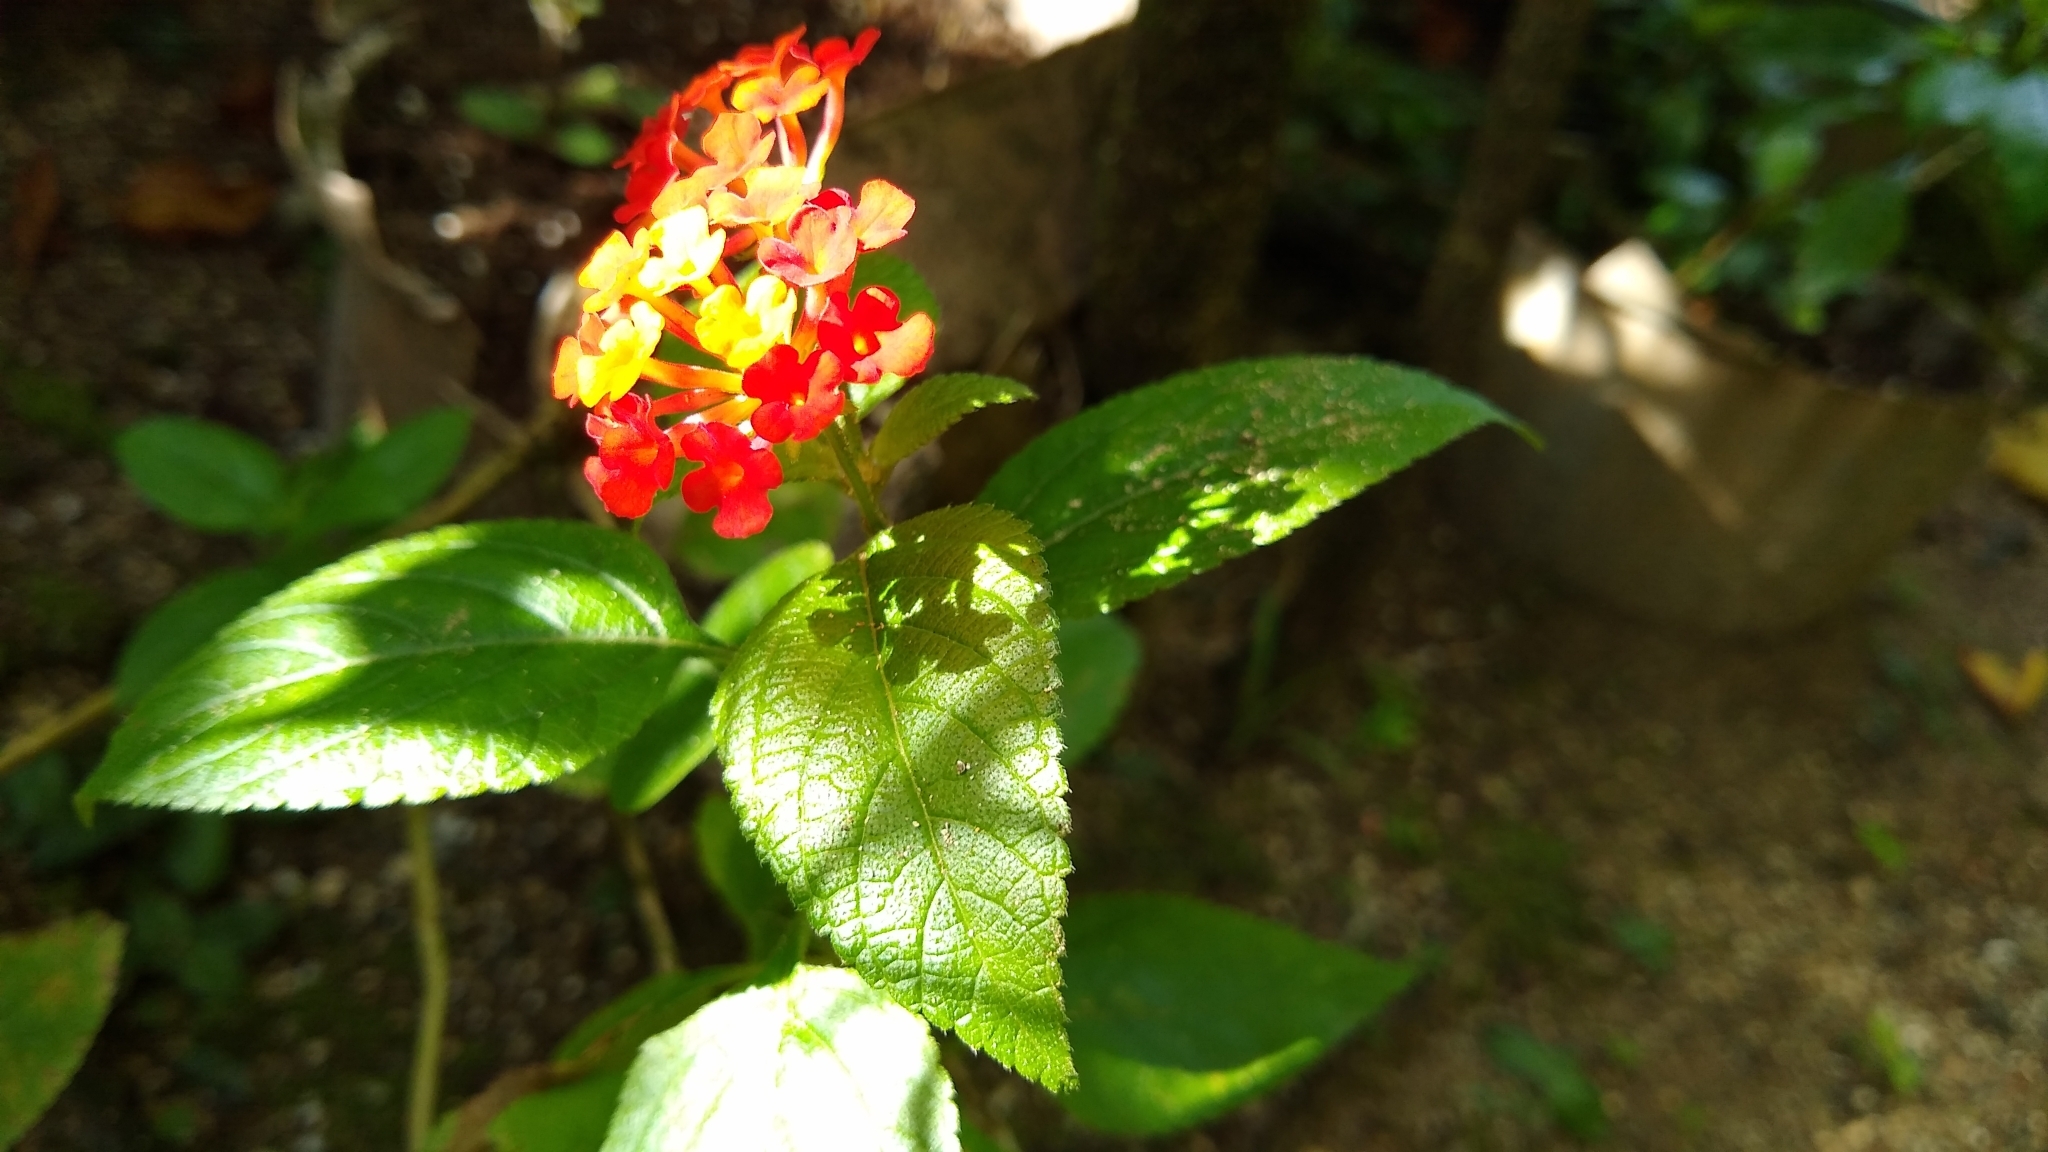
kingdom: Plantae
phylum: Tracheophyta
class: Magnoliopsida
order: Lamiales
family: Verbenaceae
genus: Lantana
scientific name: Lantana camara
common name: Lantana
